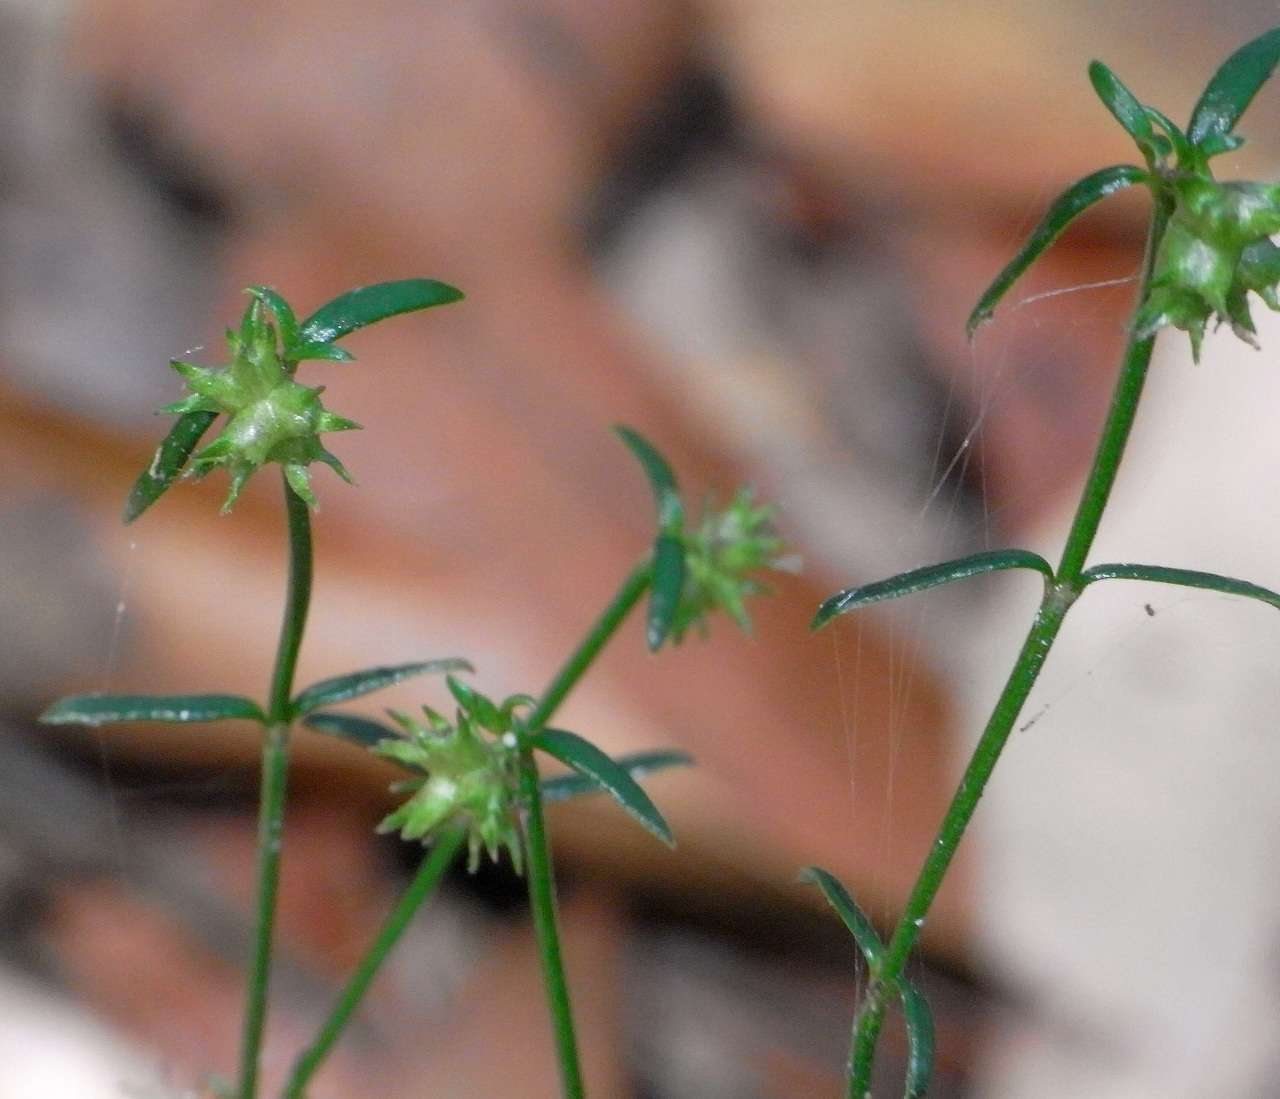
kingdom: Plantae
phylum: Tracheophyta
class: Magnoliopsida
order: Gentianales
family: Rubiaceae
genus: Opercularia
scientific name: Opercularia varia
